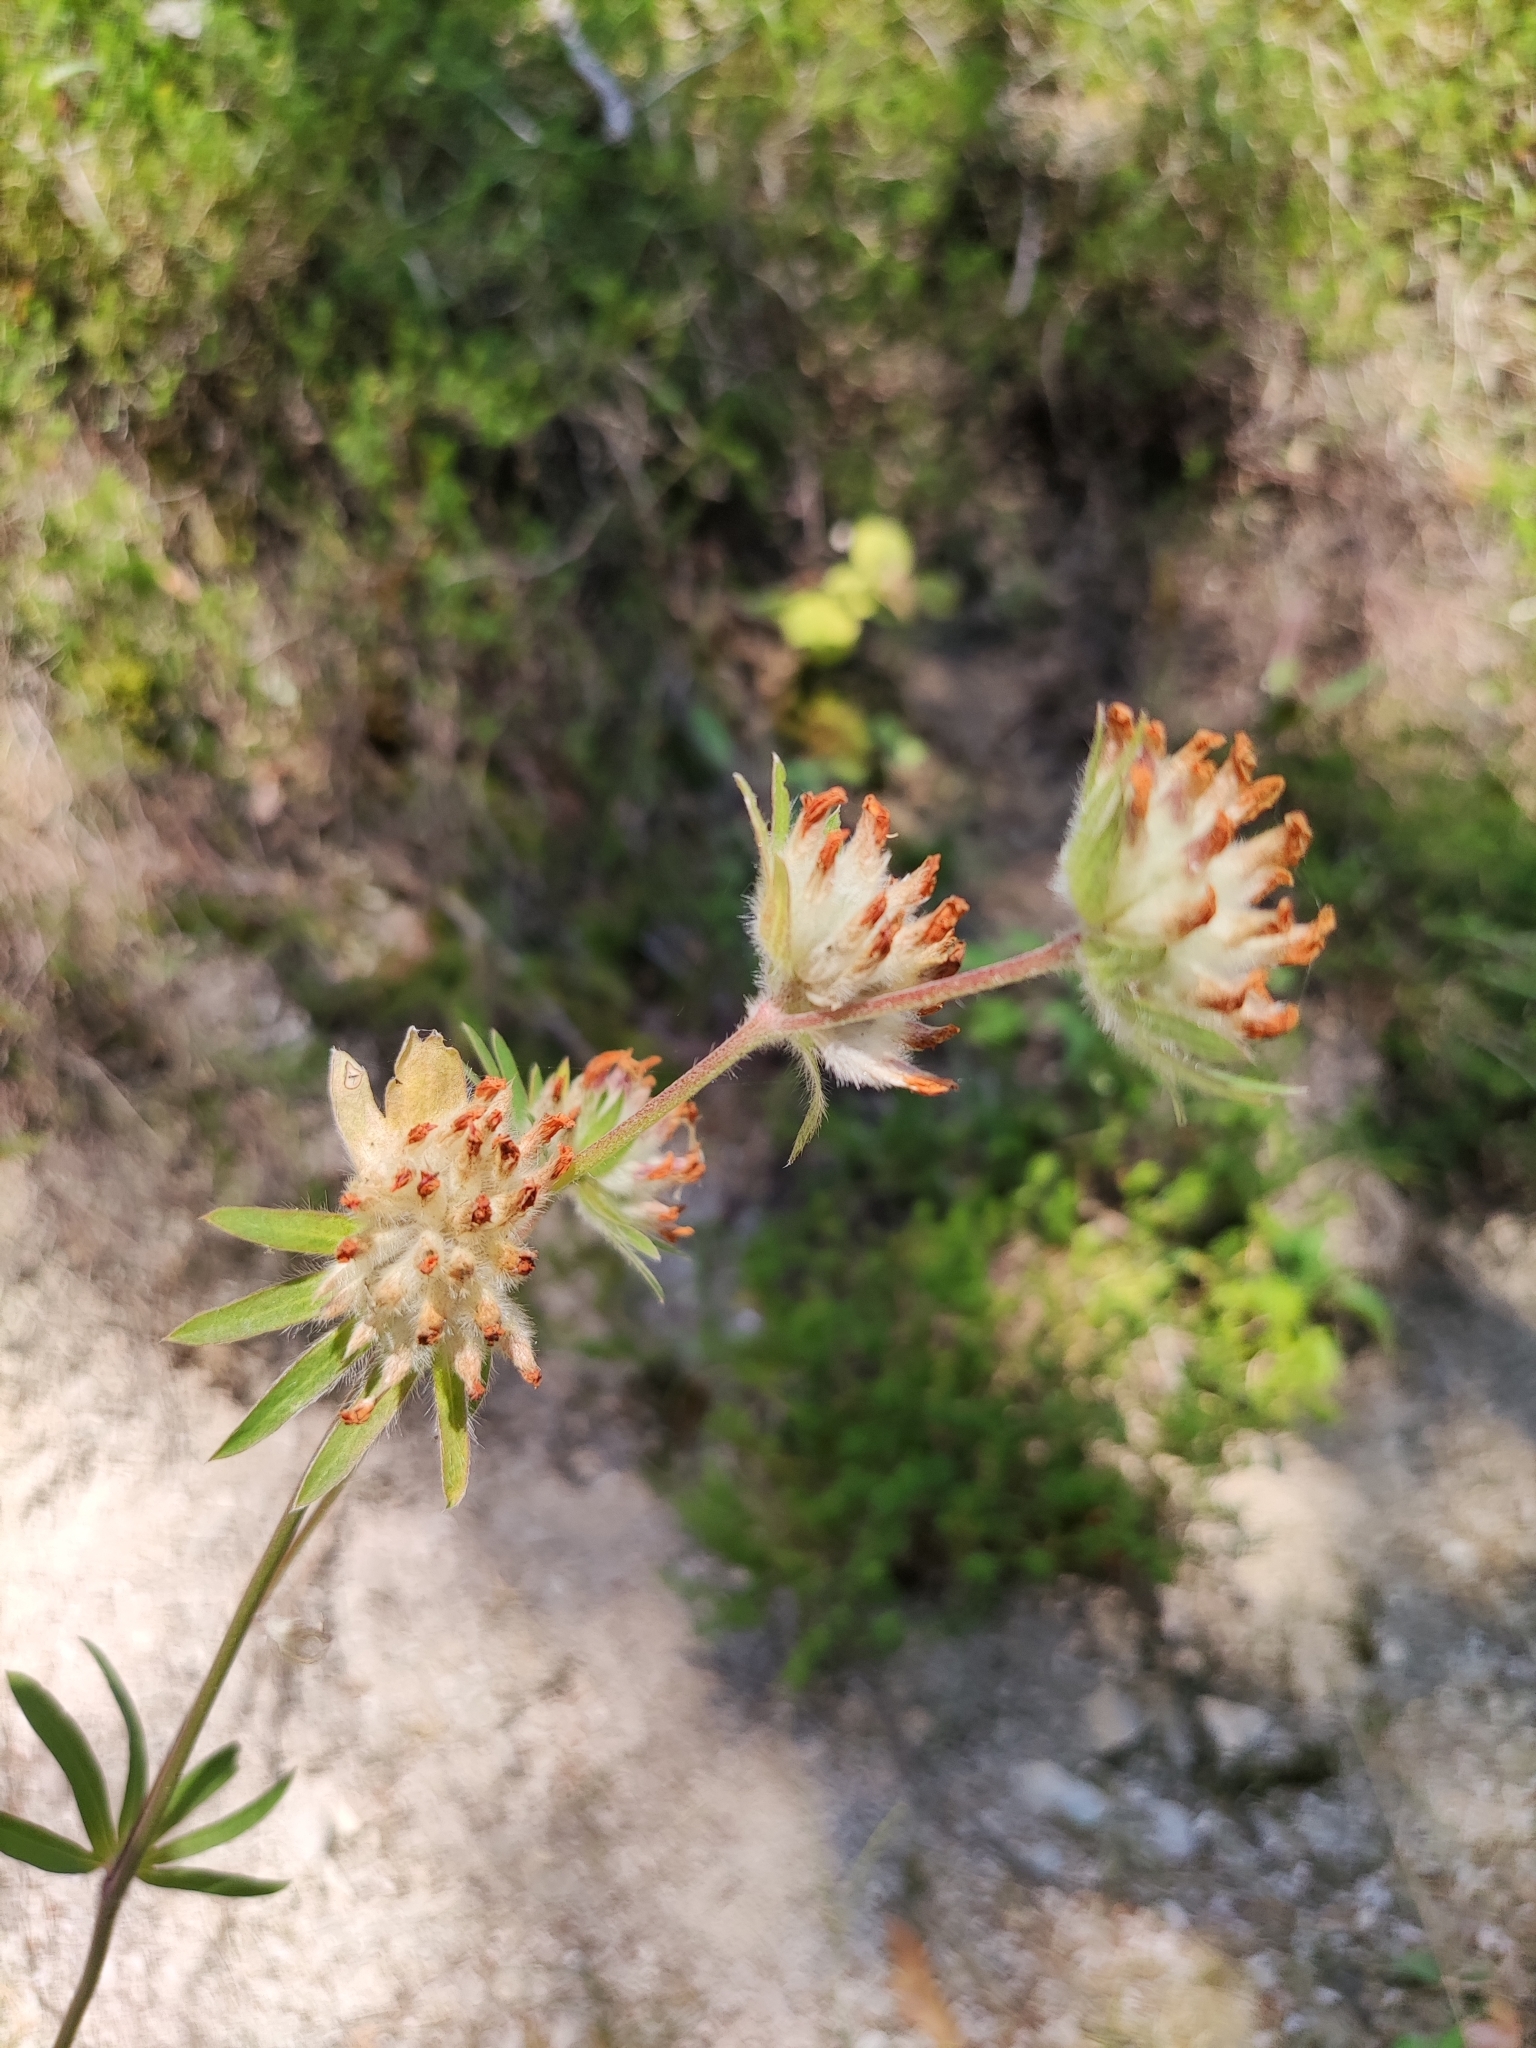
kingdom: Plantae
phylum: Tracheophyta
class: Magnoliopsida
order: Fabales
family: Fabaceae
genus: Anthyllis
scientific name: Anthyllis vulneraria
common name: Kidney vetch
